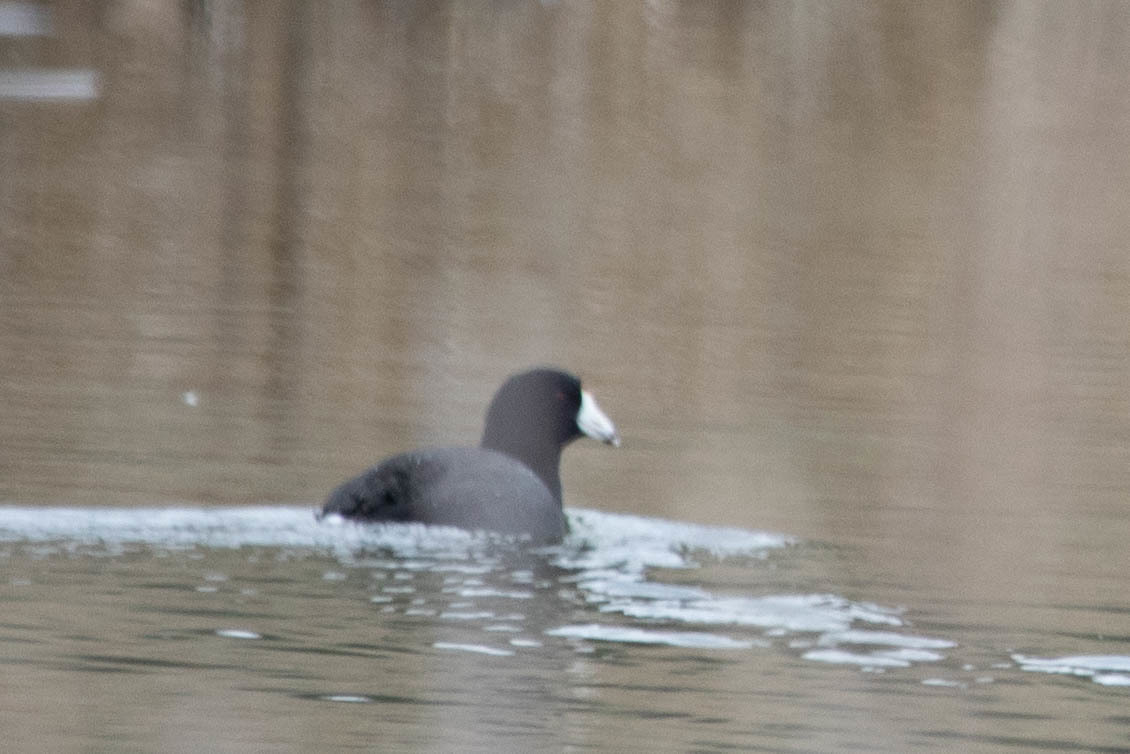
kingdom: Animalia
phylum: Chordata
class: Aves
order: Gruiformes
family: Rallidae
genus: Fulica
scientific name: Fulica americana
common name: American coot
